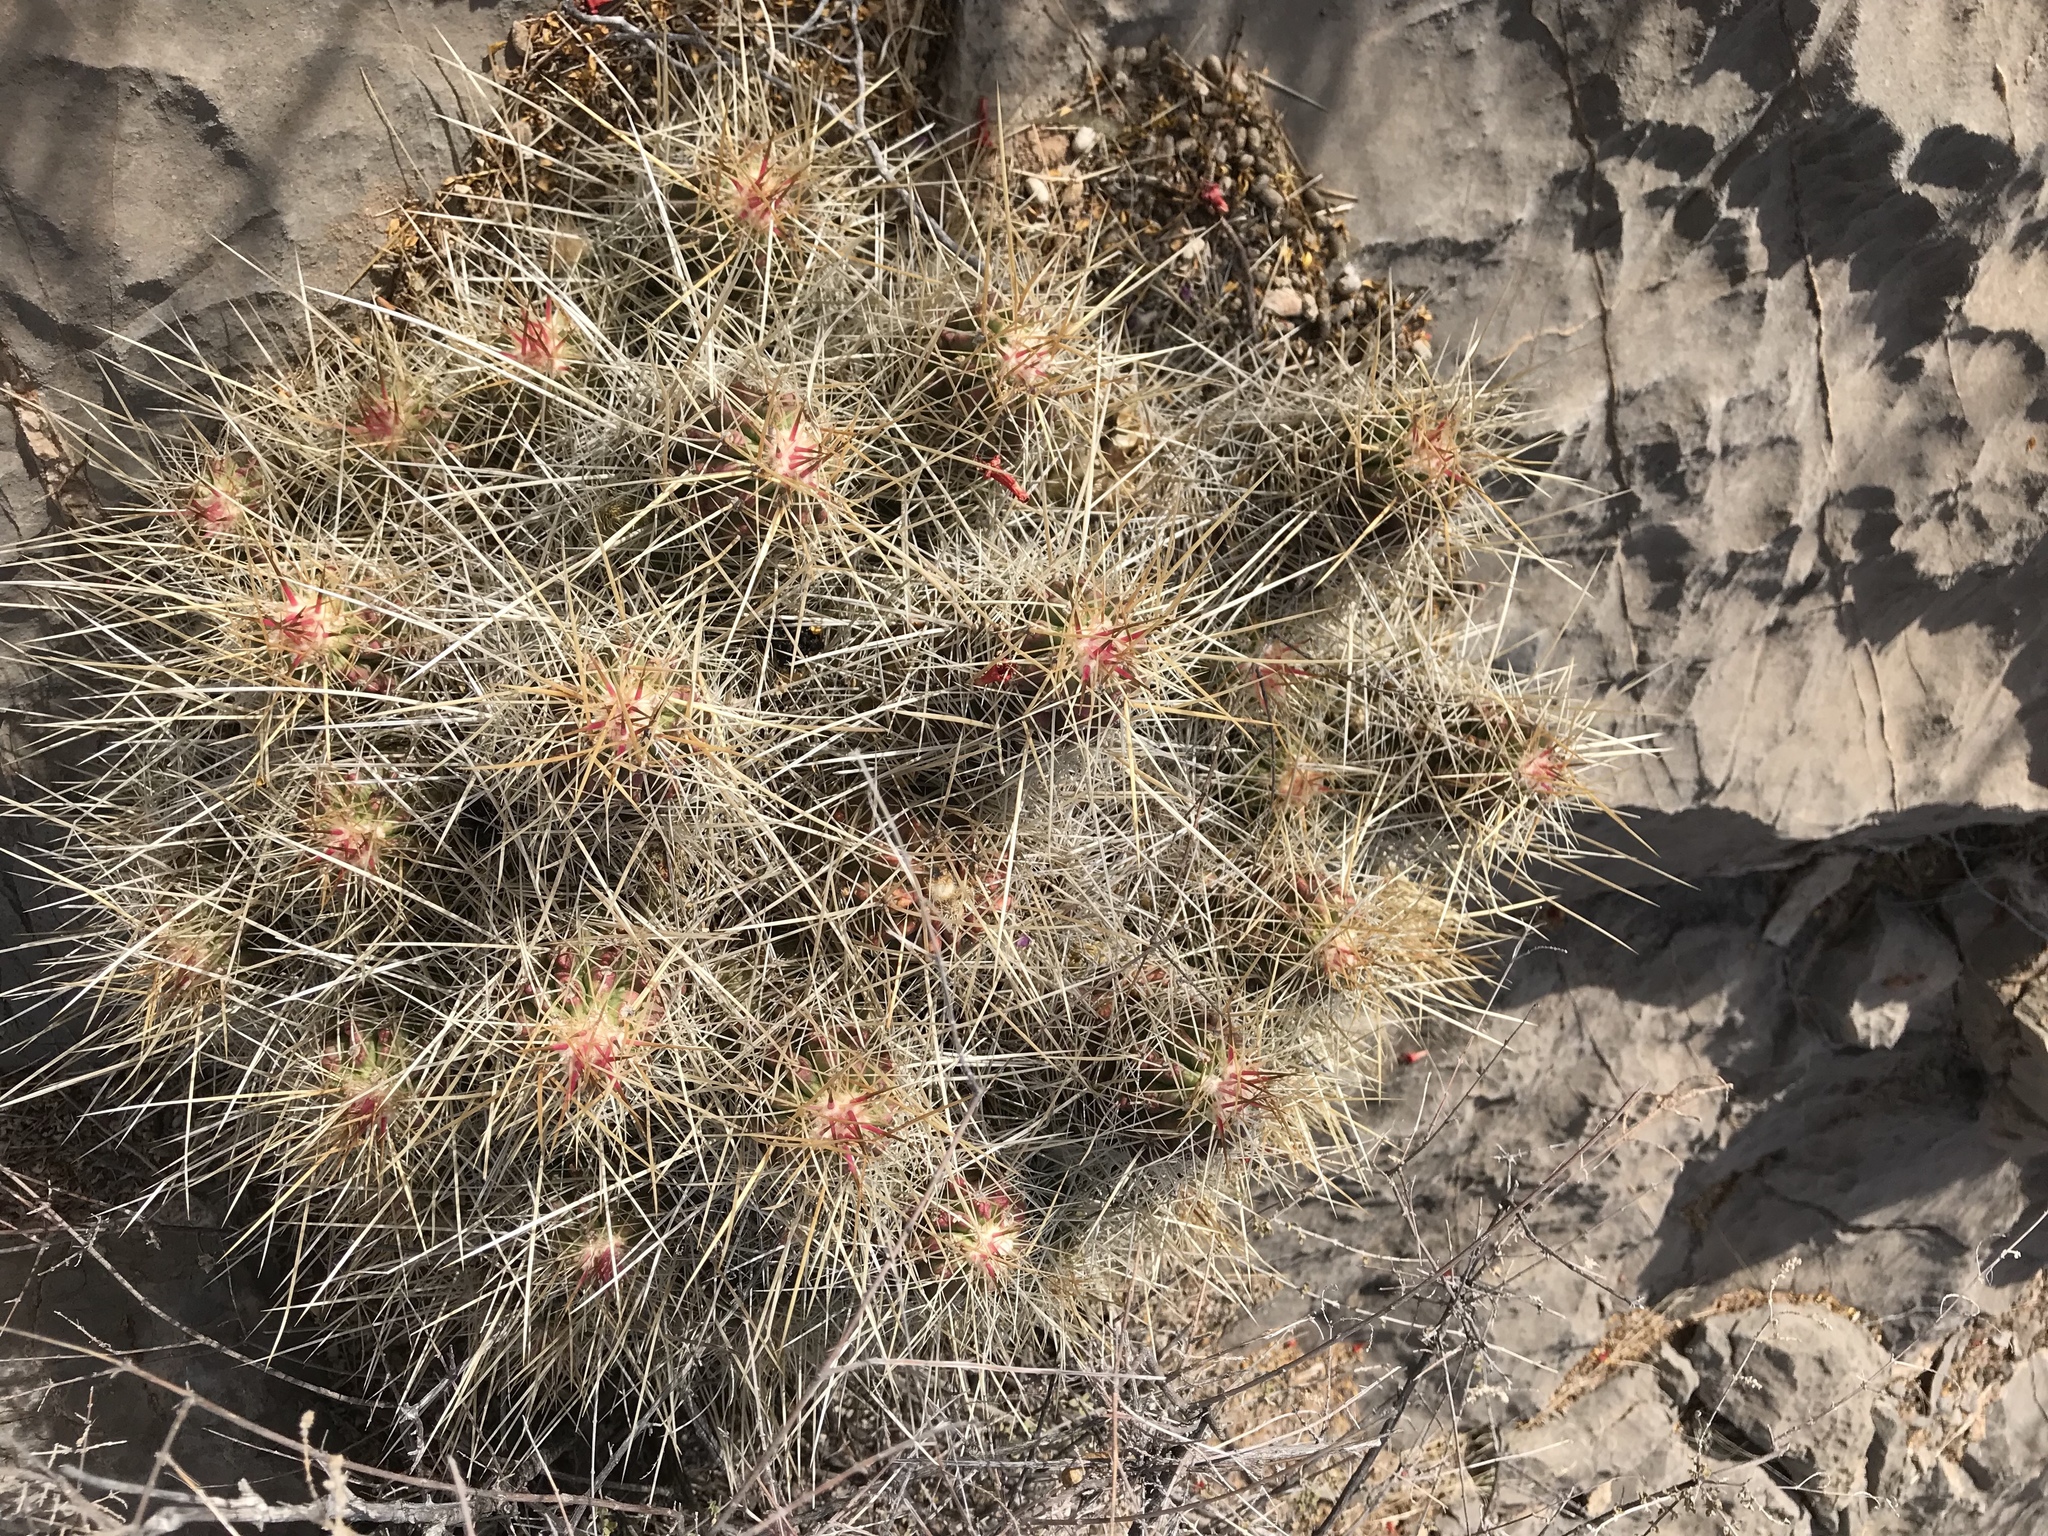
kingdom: Plantae
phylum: Tracheophyta
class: Magnoliopsida
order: Caryophyllales
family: Cactaceae
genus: Echinocereus
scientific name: Echinocereus stramineus
